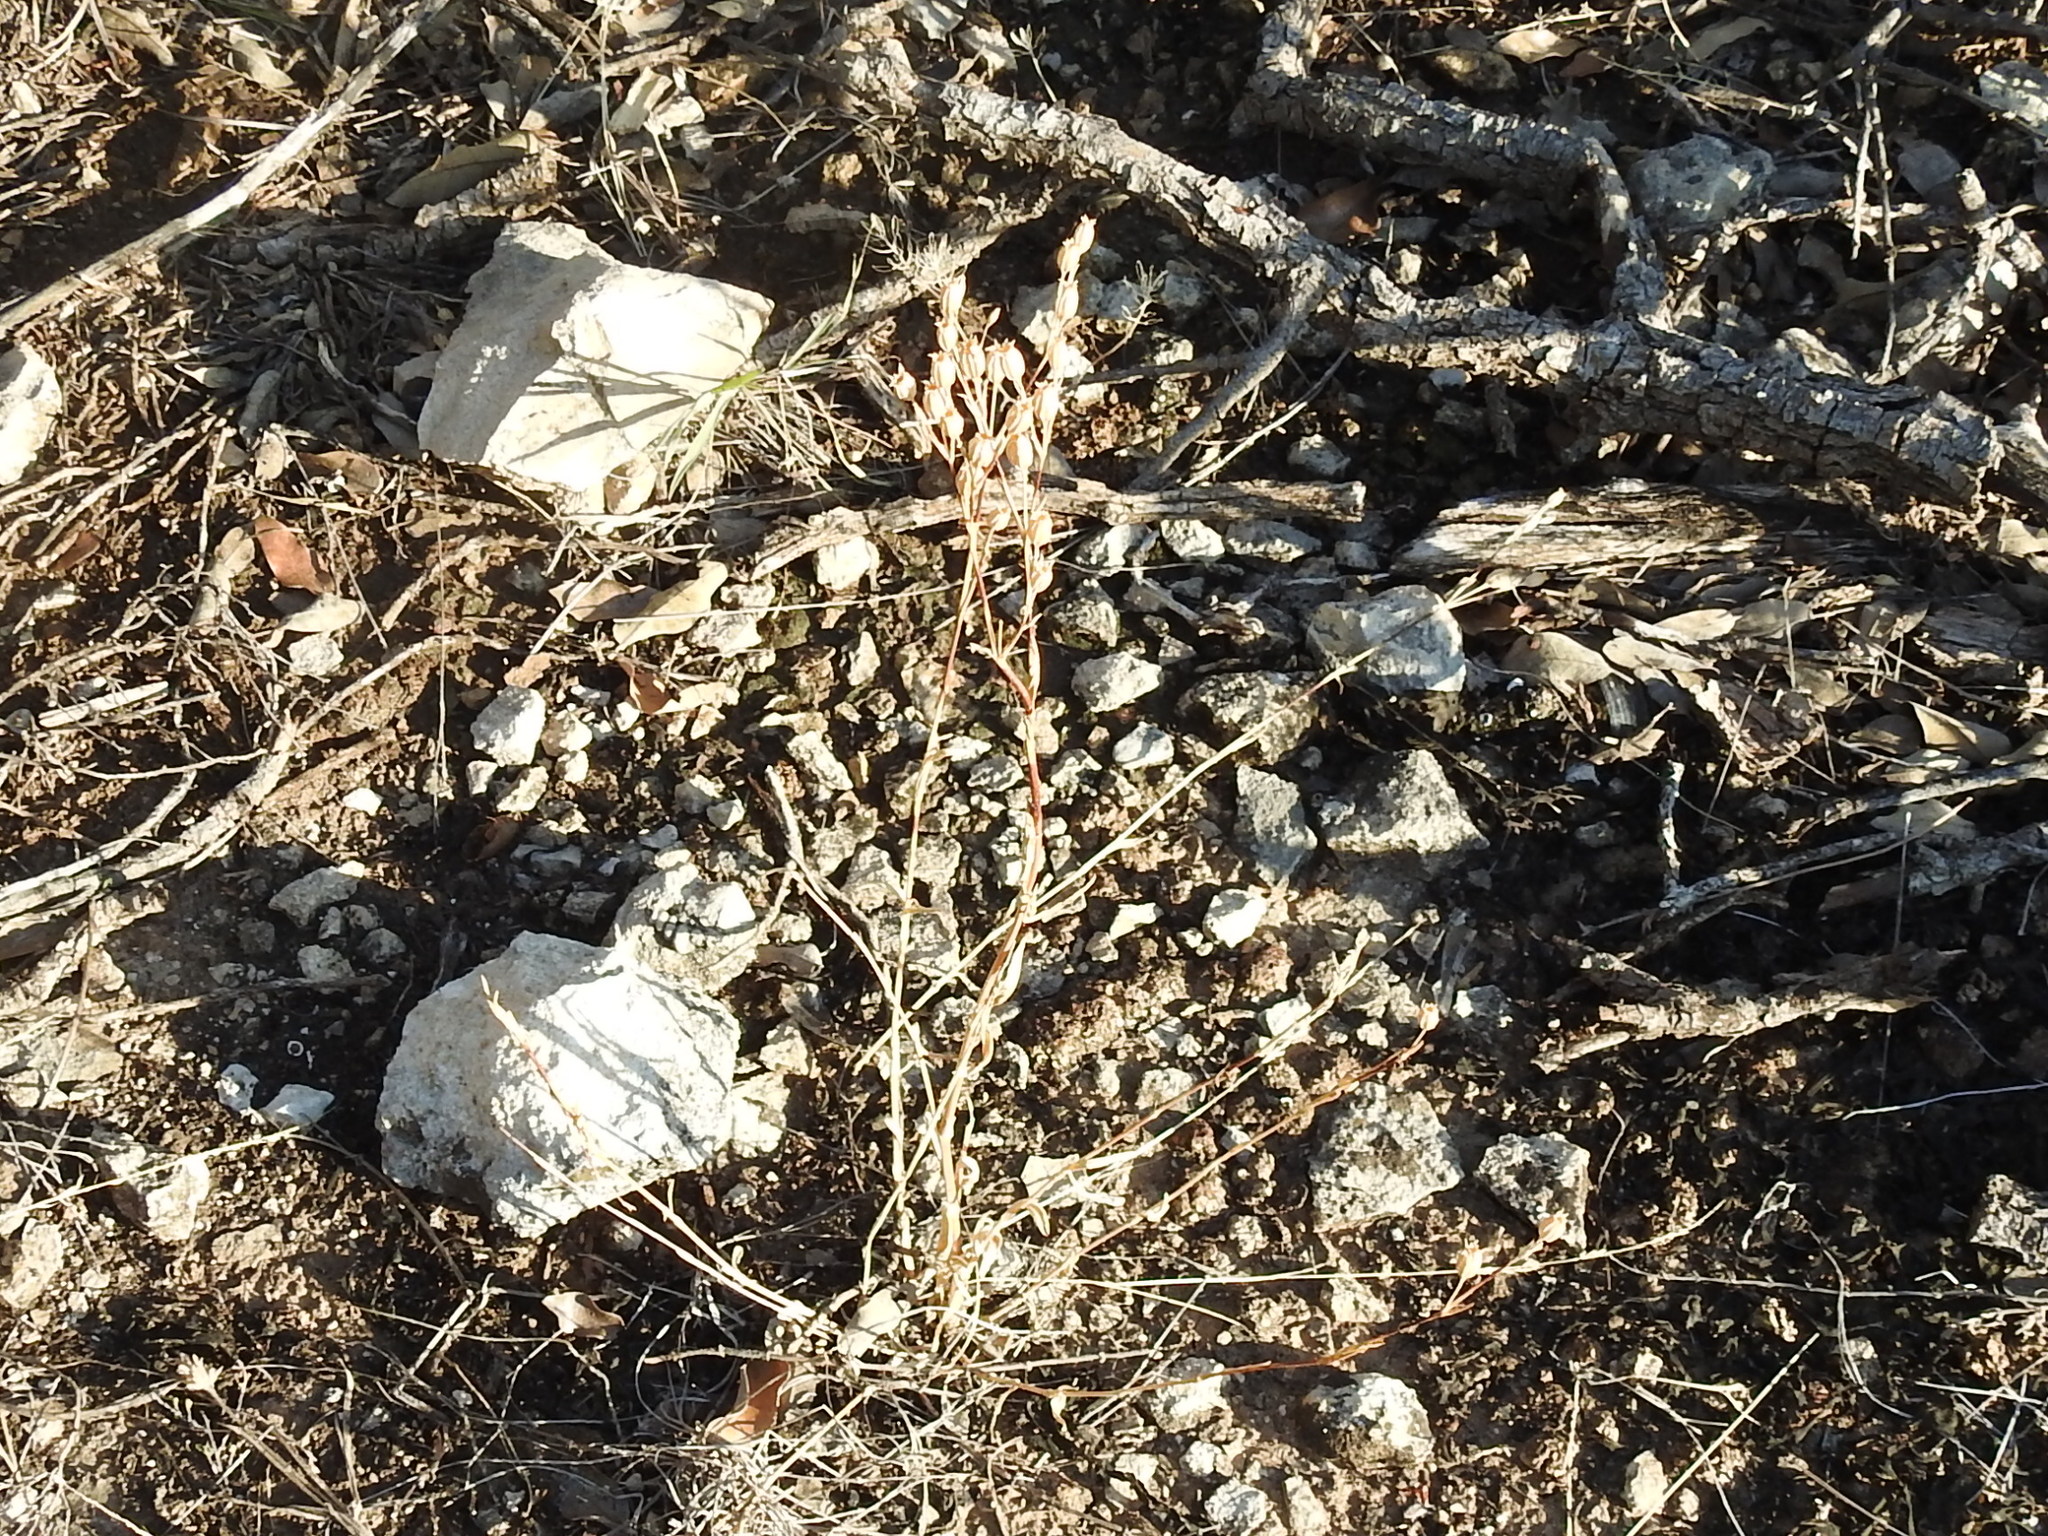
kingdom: Plantae
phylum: Tracheophyta
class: Magnoliopsida
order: Caryophyllales
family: Caryophyllaceae
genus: Silene
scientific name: Silene antirrhina
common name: Sleepy catchfly
